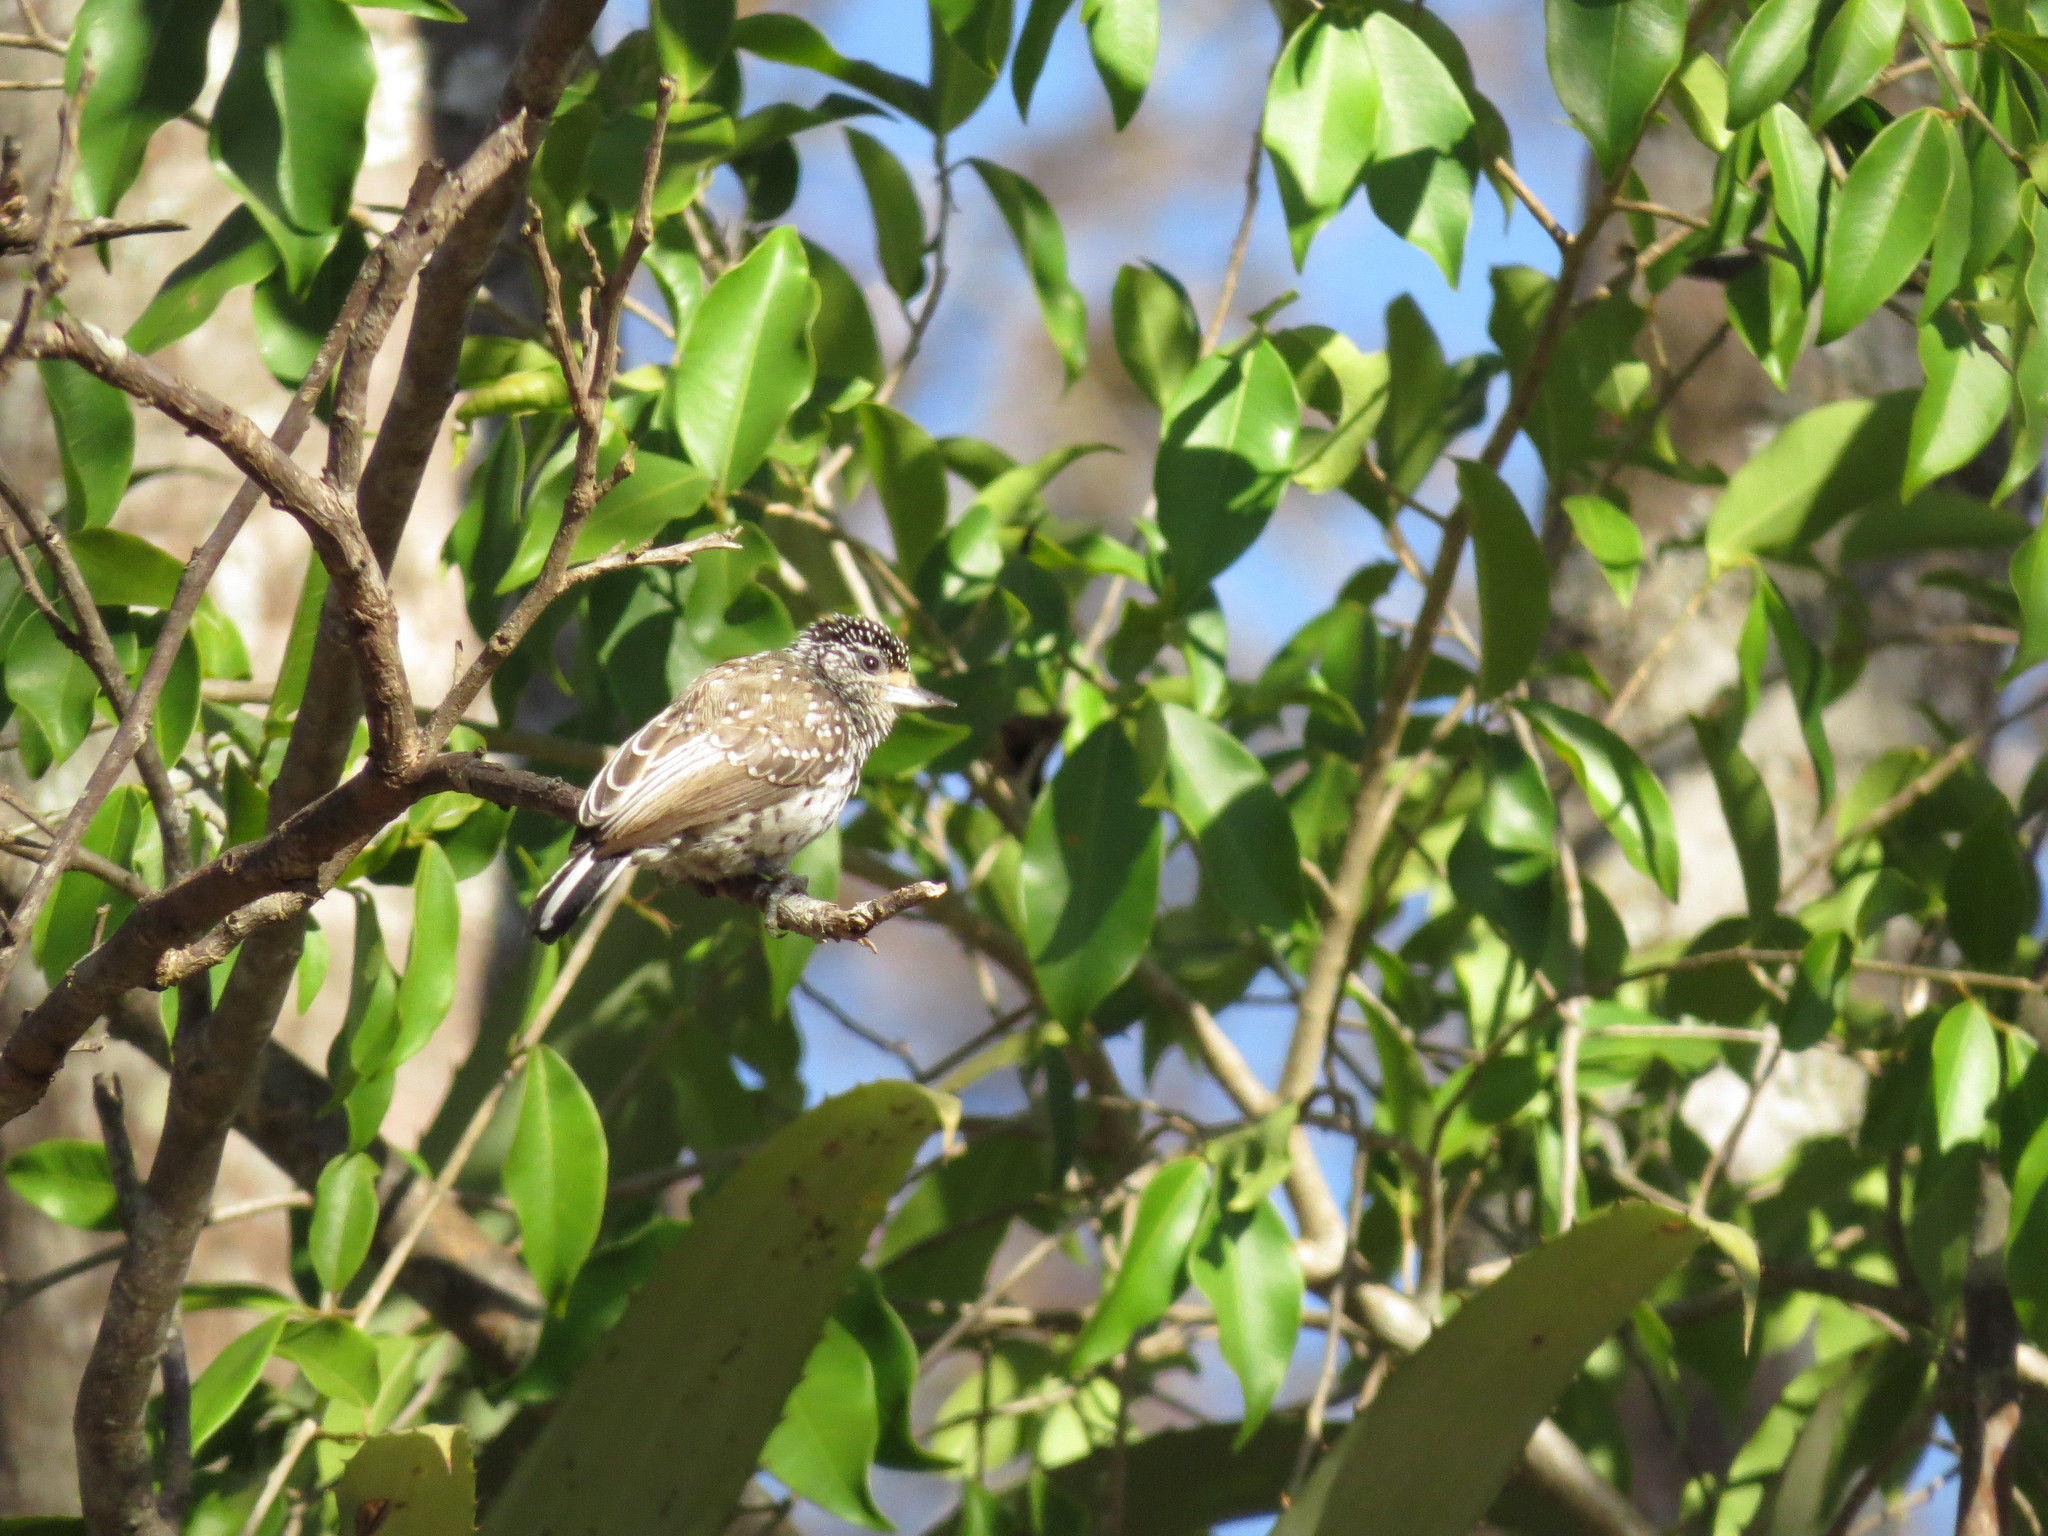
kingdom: Animalia
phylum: Chordata
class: Aves
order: Piciformes
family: Picidae
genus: Picumnus
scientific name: Picumnus albosquamatus
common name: White-wedged piculet
